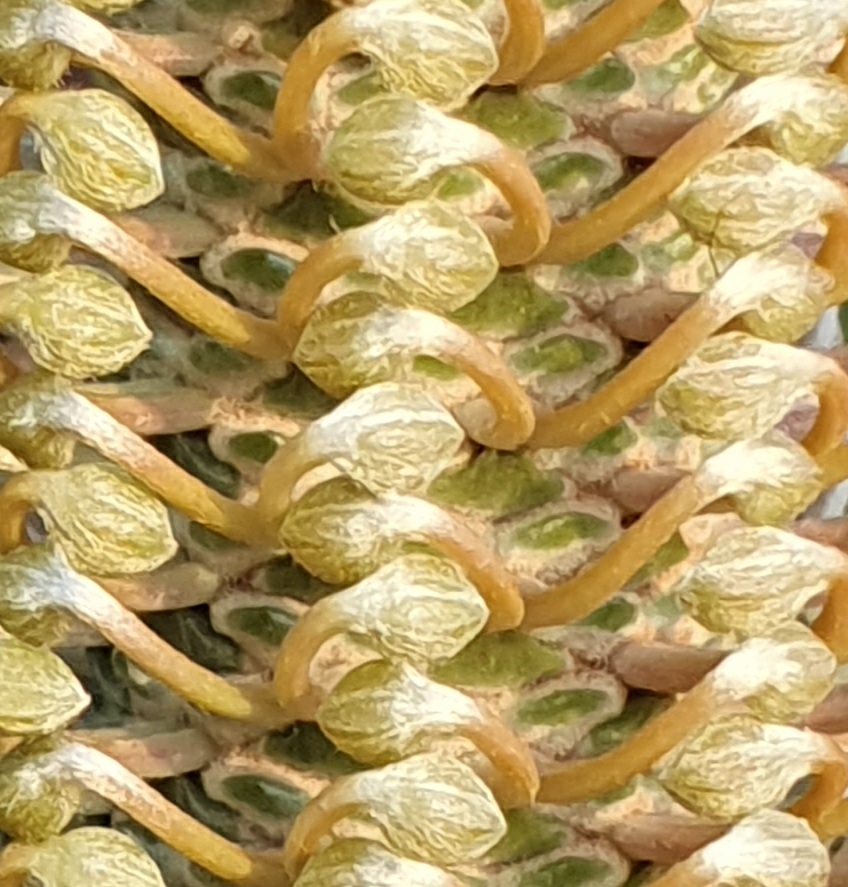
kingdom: Plantae
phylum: Tracheophyta
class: Magnoliopsida
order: Proteales
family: Proteaceae
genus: Banksia
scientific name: Banksia ericifolia
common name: Heath-leaf banksia
